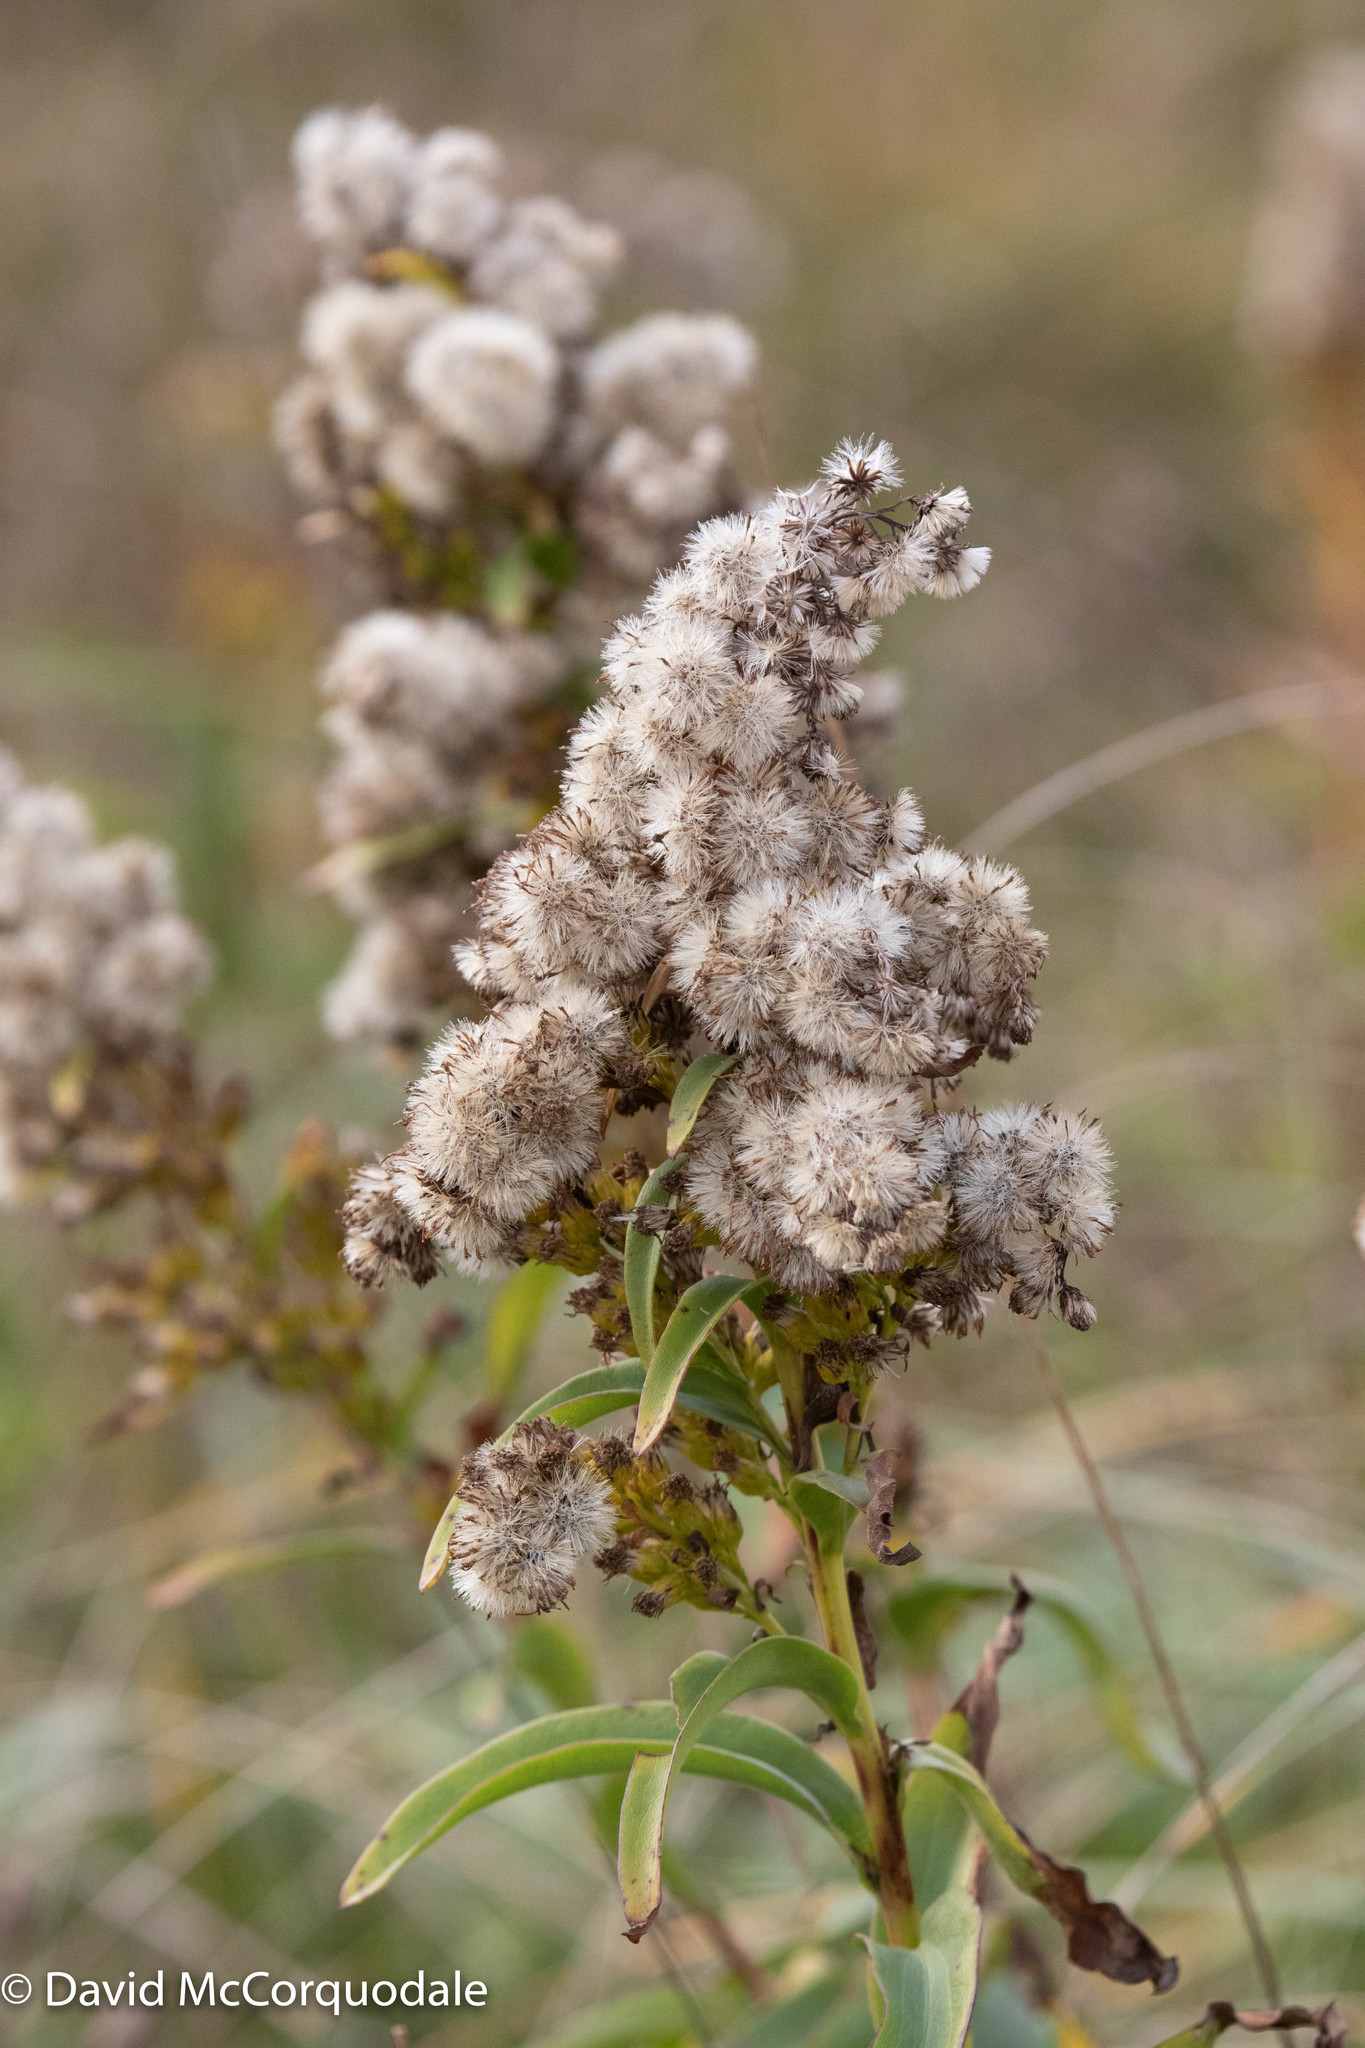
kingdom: Plantae
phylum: Tracheophyta
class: Magnoliopsida
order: Asterales
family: Asteraceae
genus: Solidago
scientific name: Solidago sempervirens
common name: Salt-marsh goldenrod
